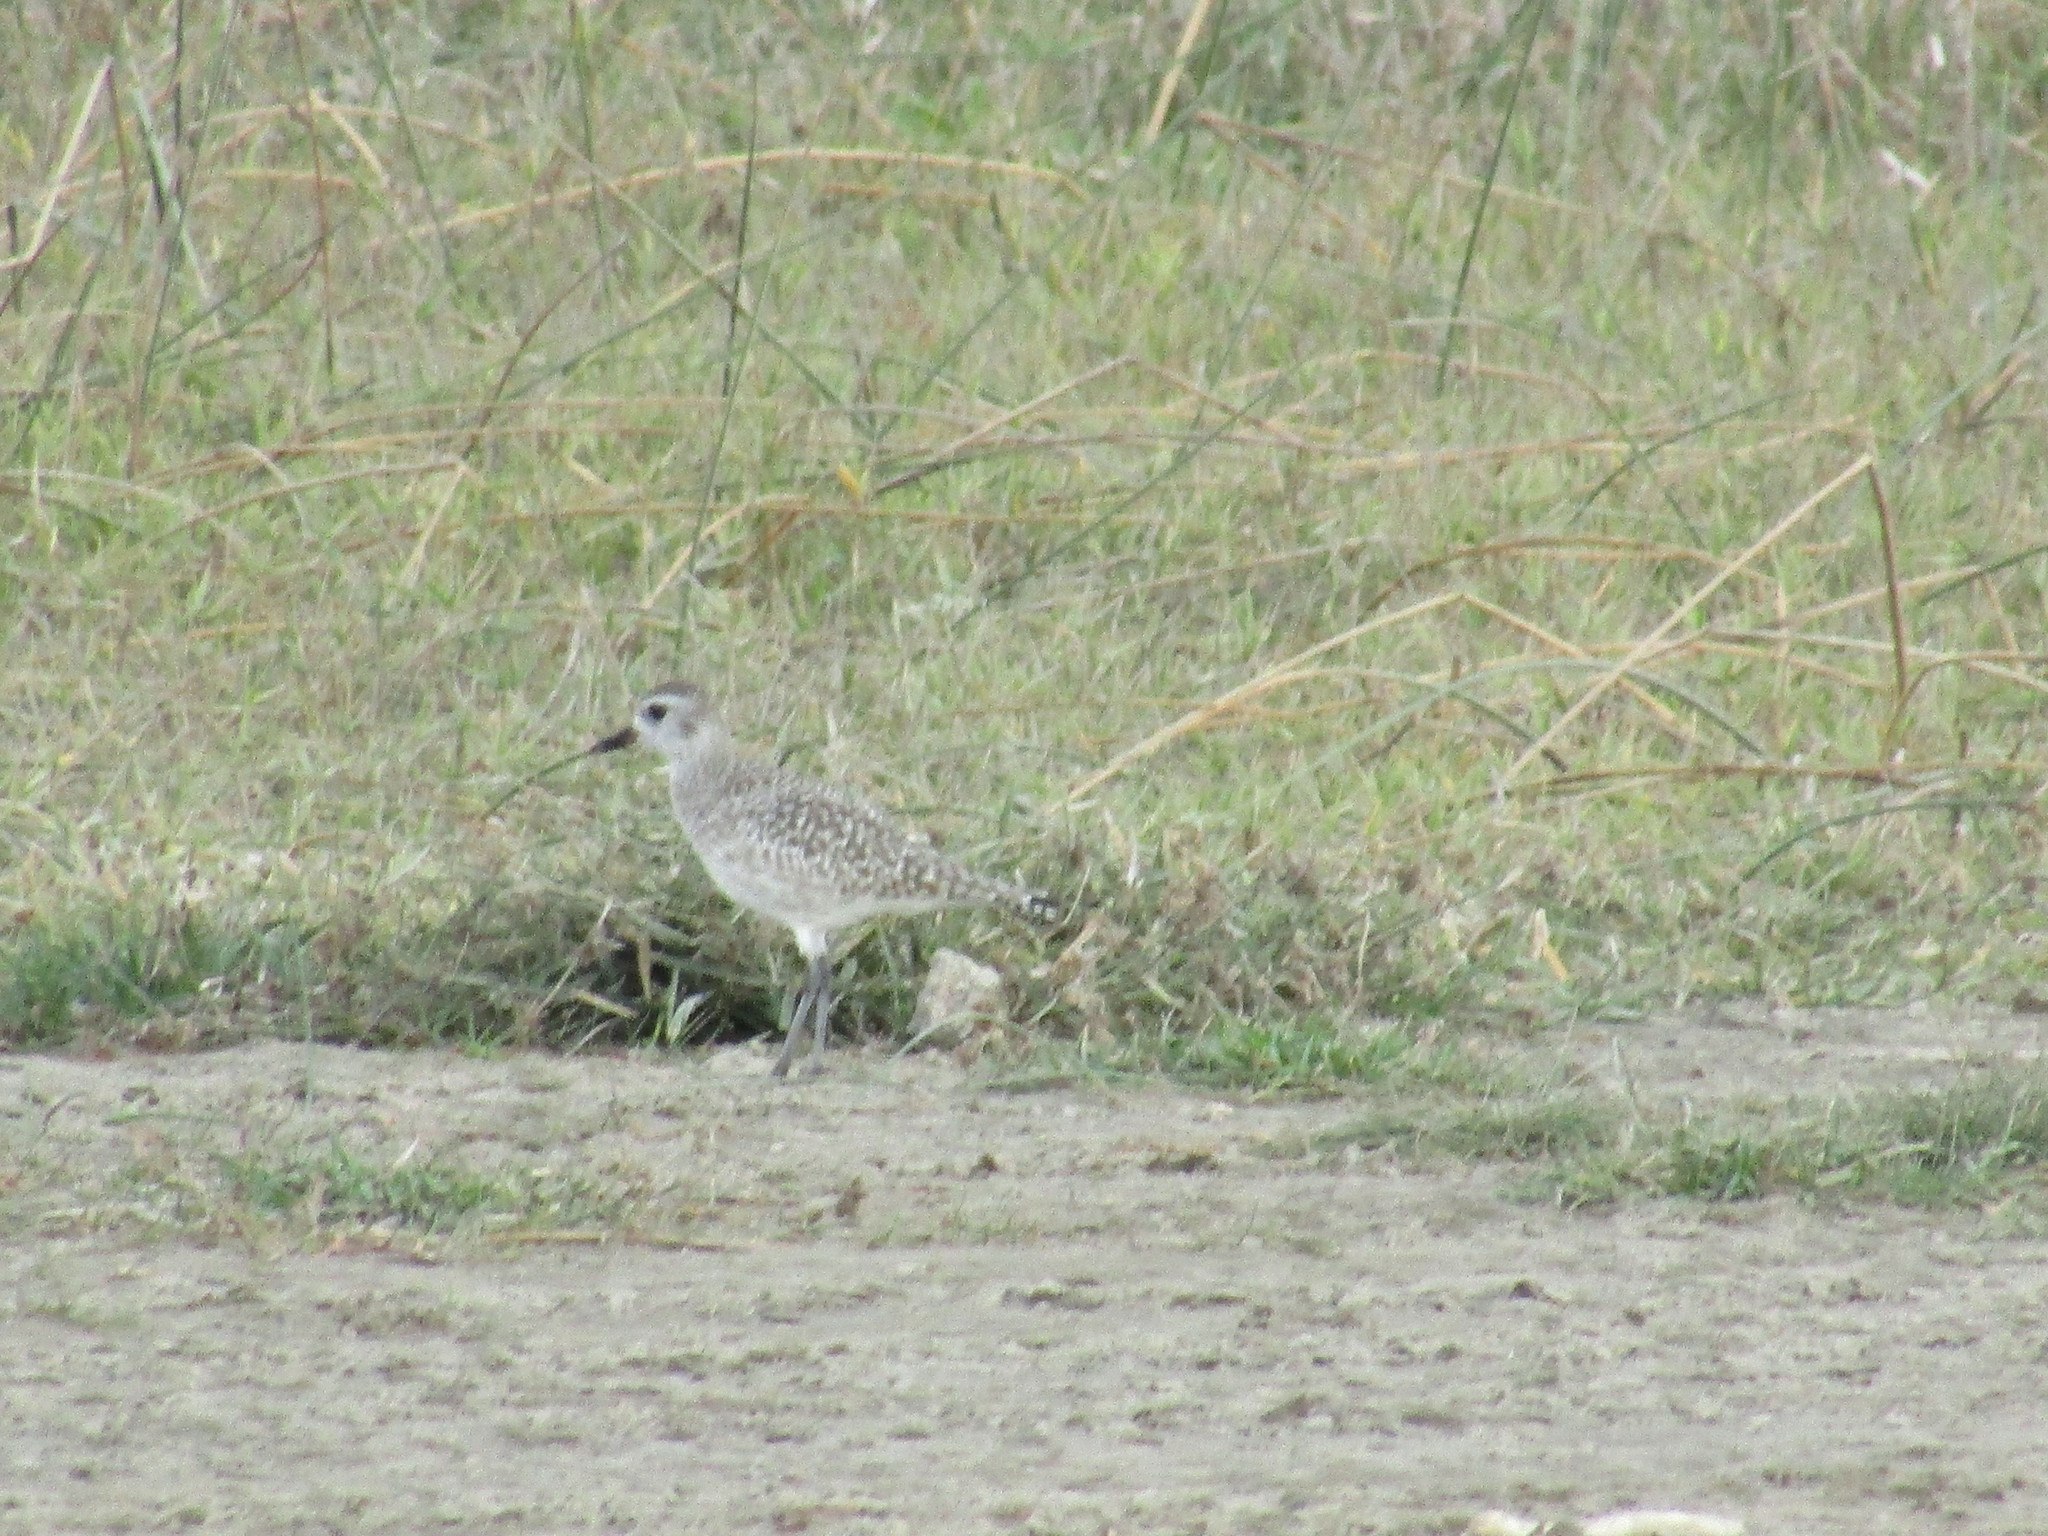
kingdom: Animalia
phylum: Chordata
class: Aves
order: Charadriiformes
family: Charadriidae
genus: Pluvialis
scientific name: Pluvialis squatarola
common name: Grey plover
